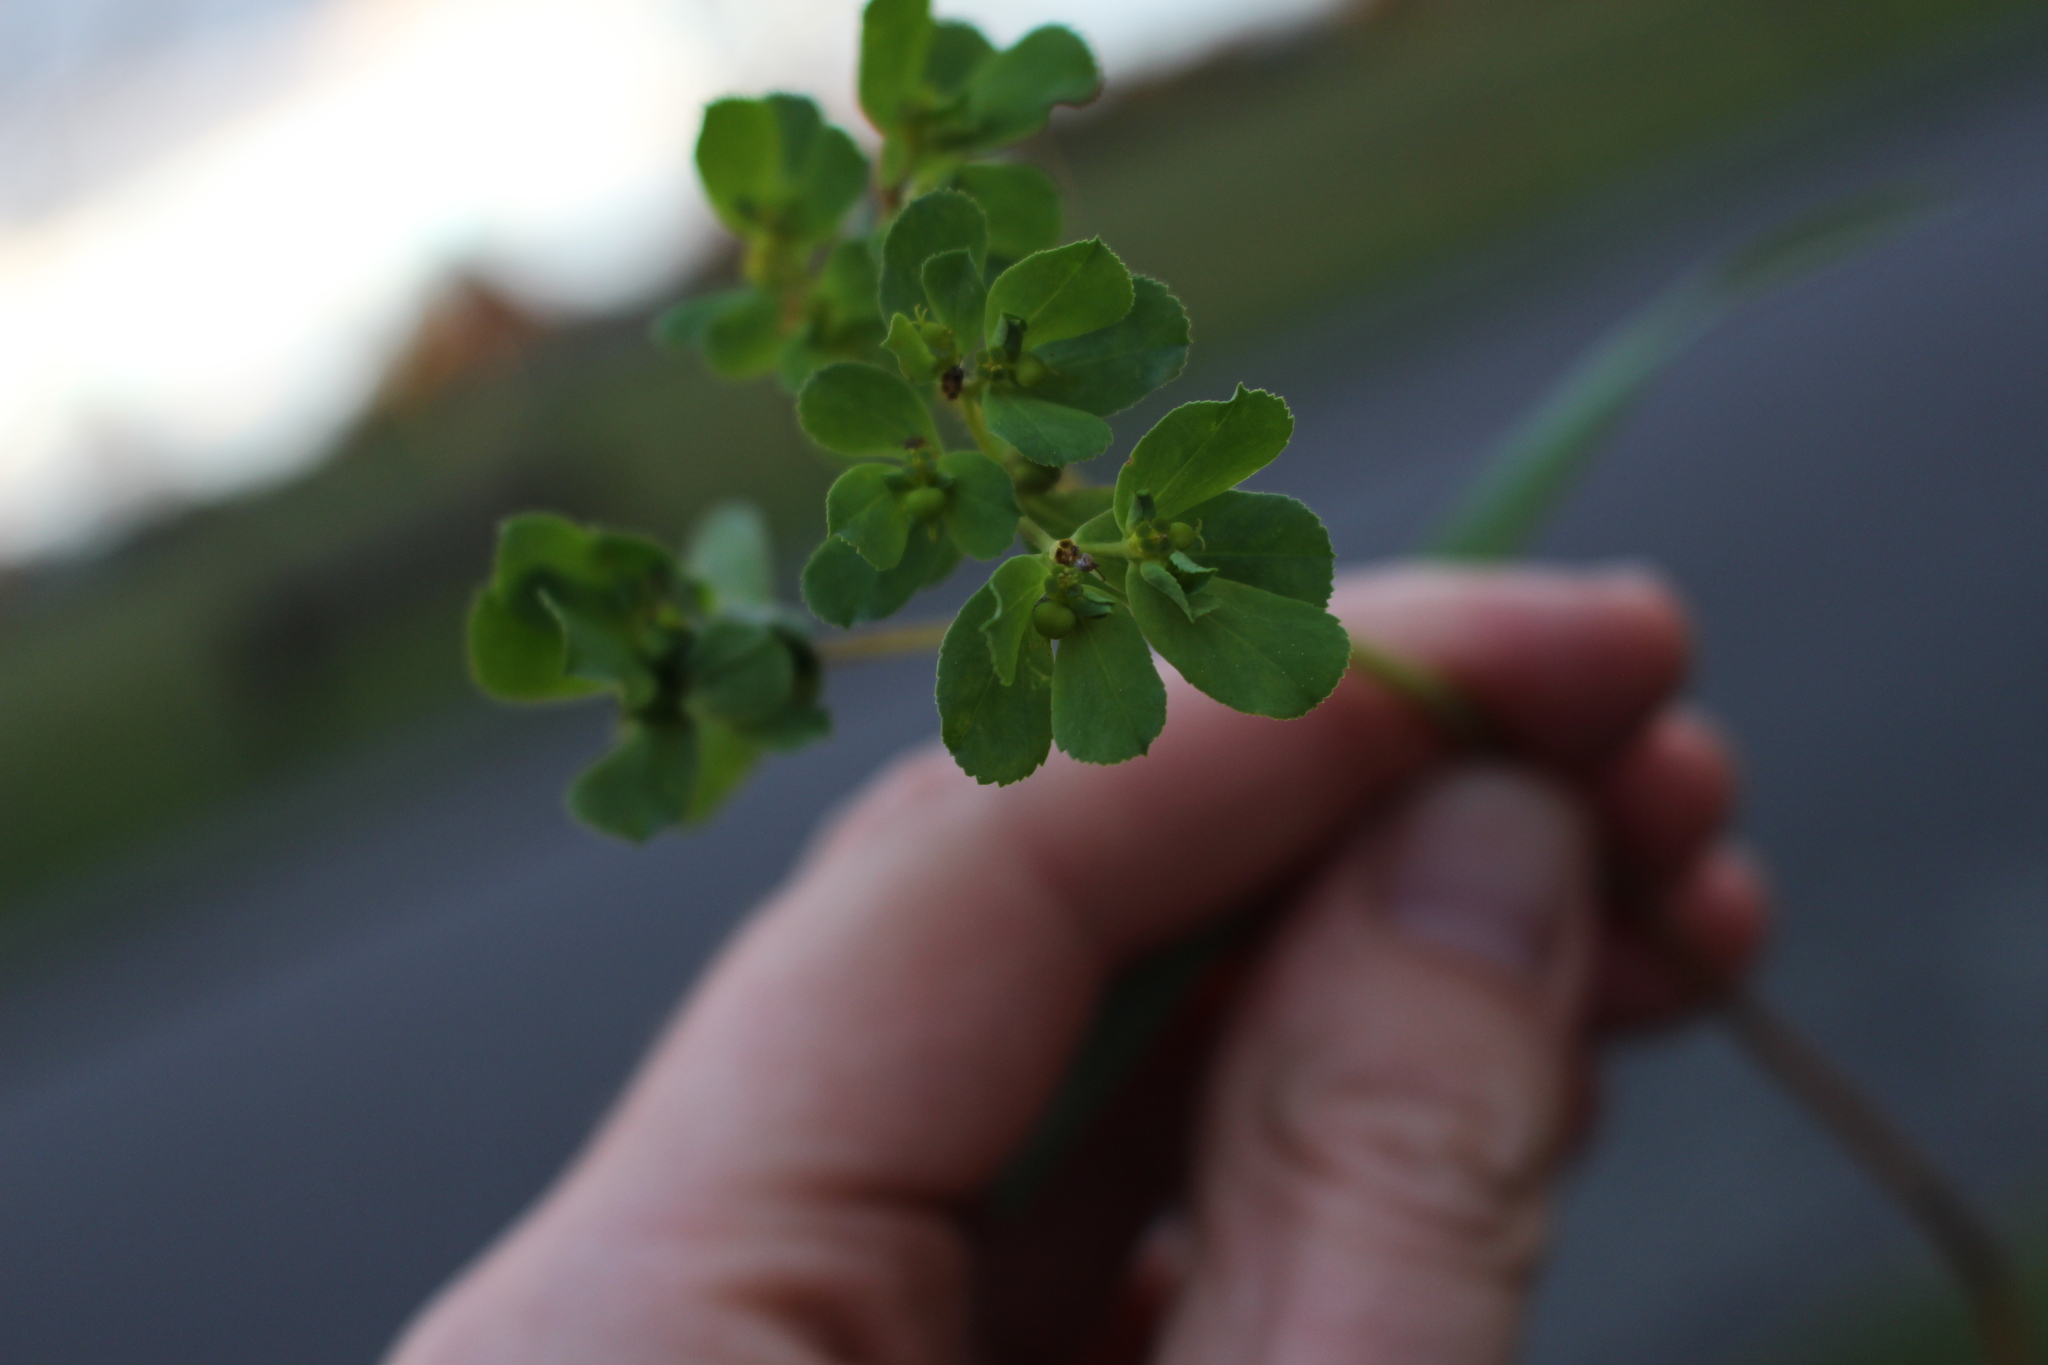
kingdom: Plantae
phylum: Tracheophyta
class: Magnoliopsida
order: Malpighiales
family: Euphorbiaceae
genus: Euphorbia
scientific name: Euphorbia helioscopia
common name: Sun spurge
